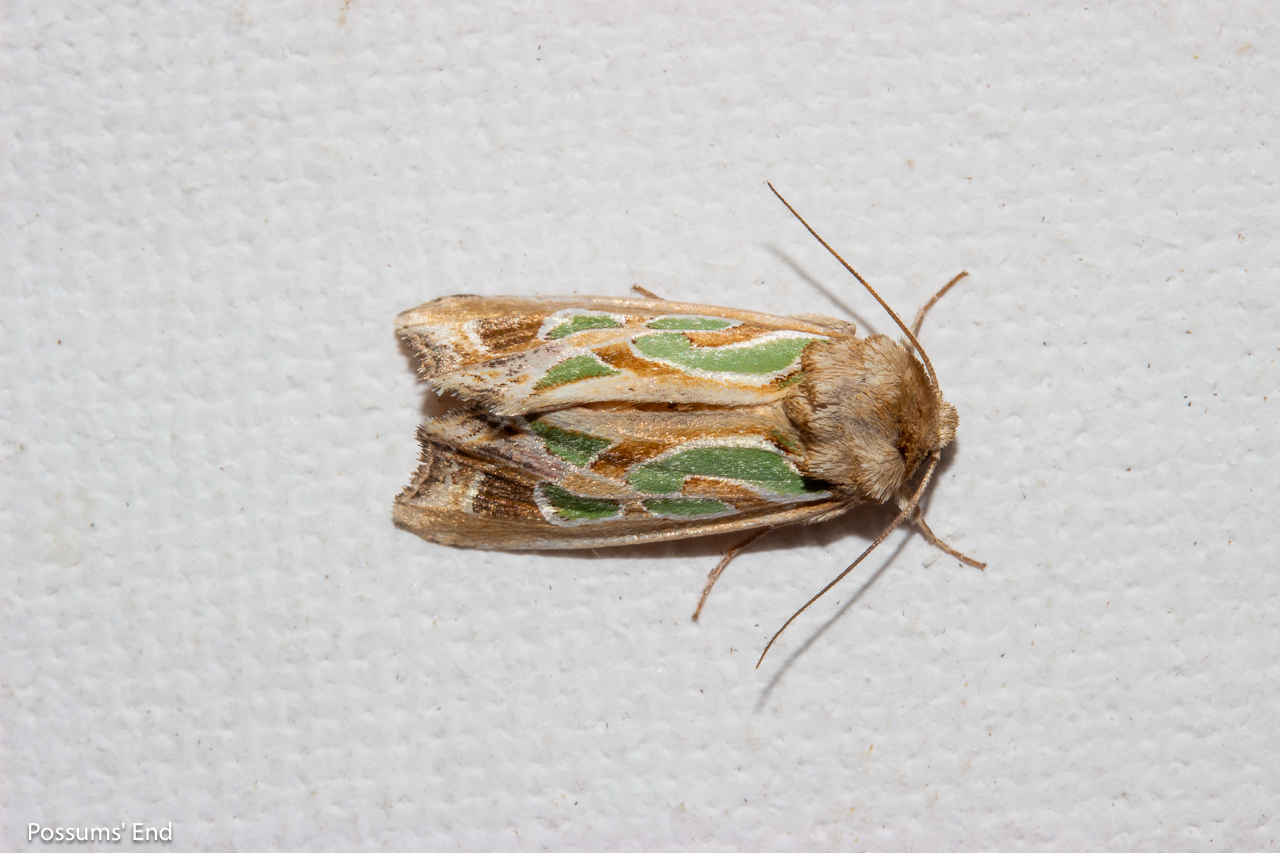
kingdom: Animalia
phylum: Arthropoda
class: Insecta
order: Lepidoptera
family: Noctuidae
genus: Cosmodes
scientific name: Cosmodes elegans
